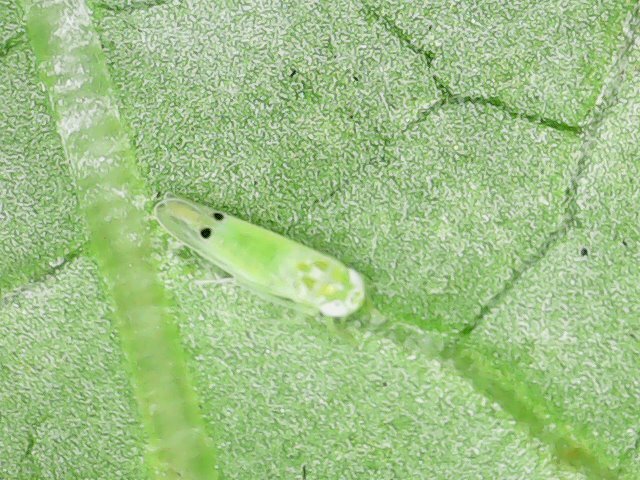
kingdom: Animalia
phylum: Arthropoda
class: Insecta
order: Hemiptera
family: Cicadellidae
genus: Amrasca
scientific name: Amrasca biguttula
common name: Indian cotton jassid
